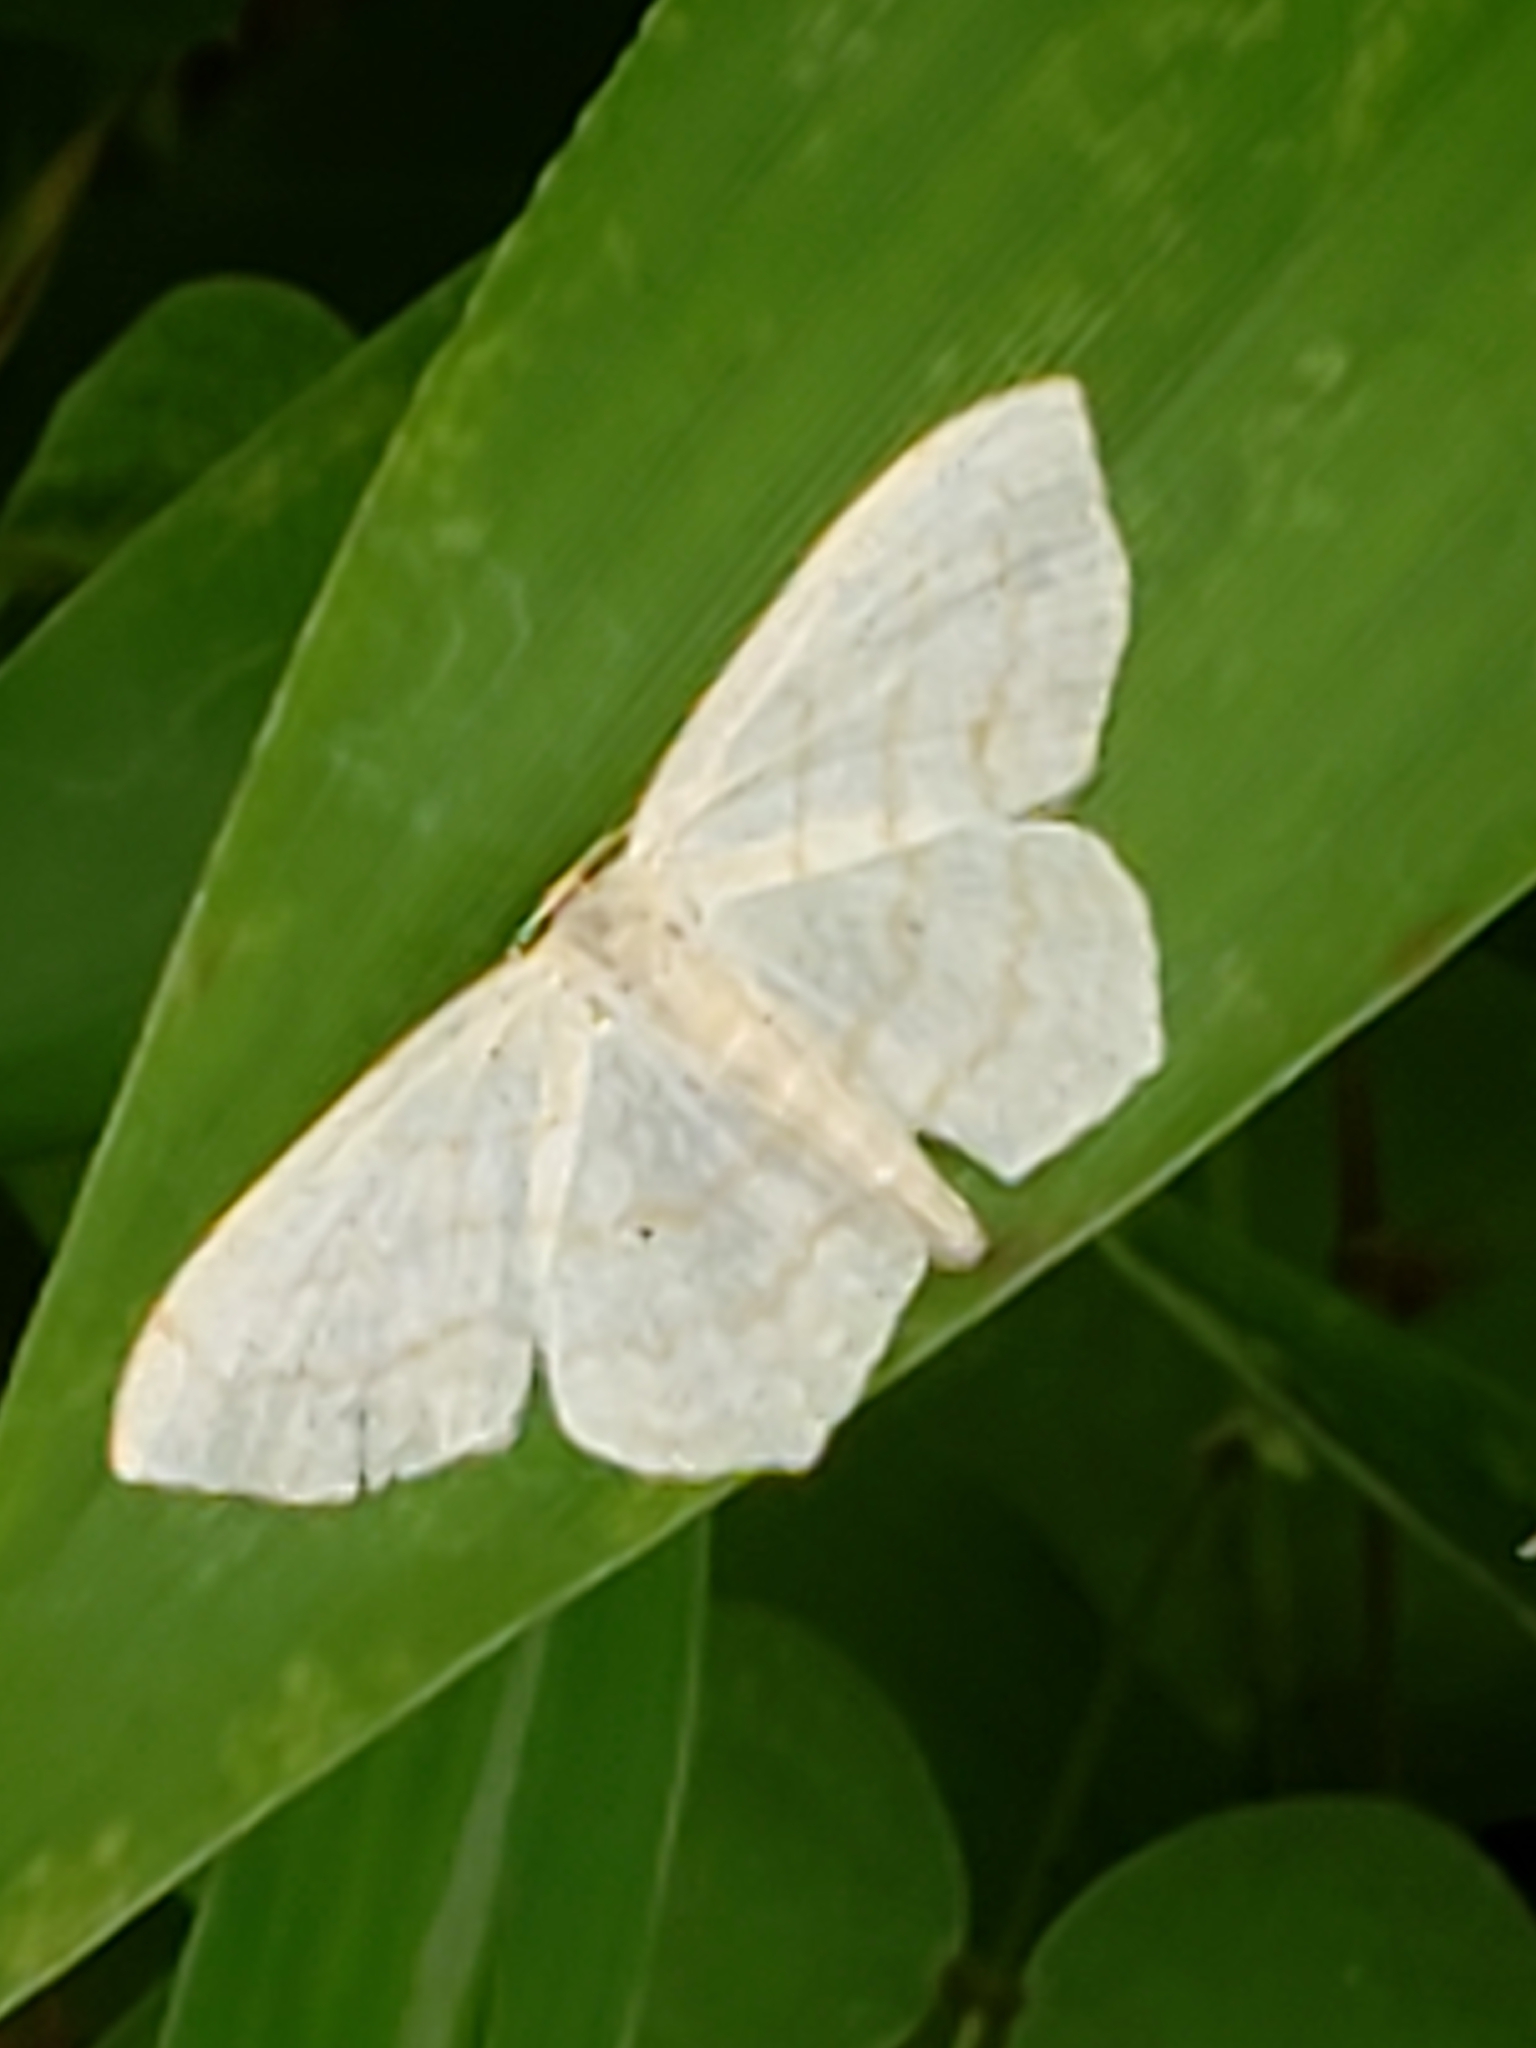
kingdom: Animalia
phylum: Arthropoda
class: Insecta
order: Lepidoptera
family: Geometridae
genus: Scopula
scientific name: Scopula limboundata
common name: Large lace border
